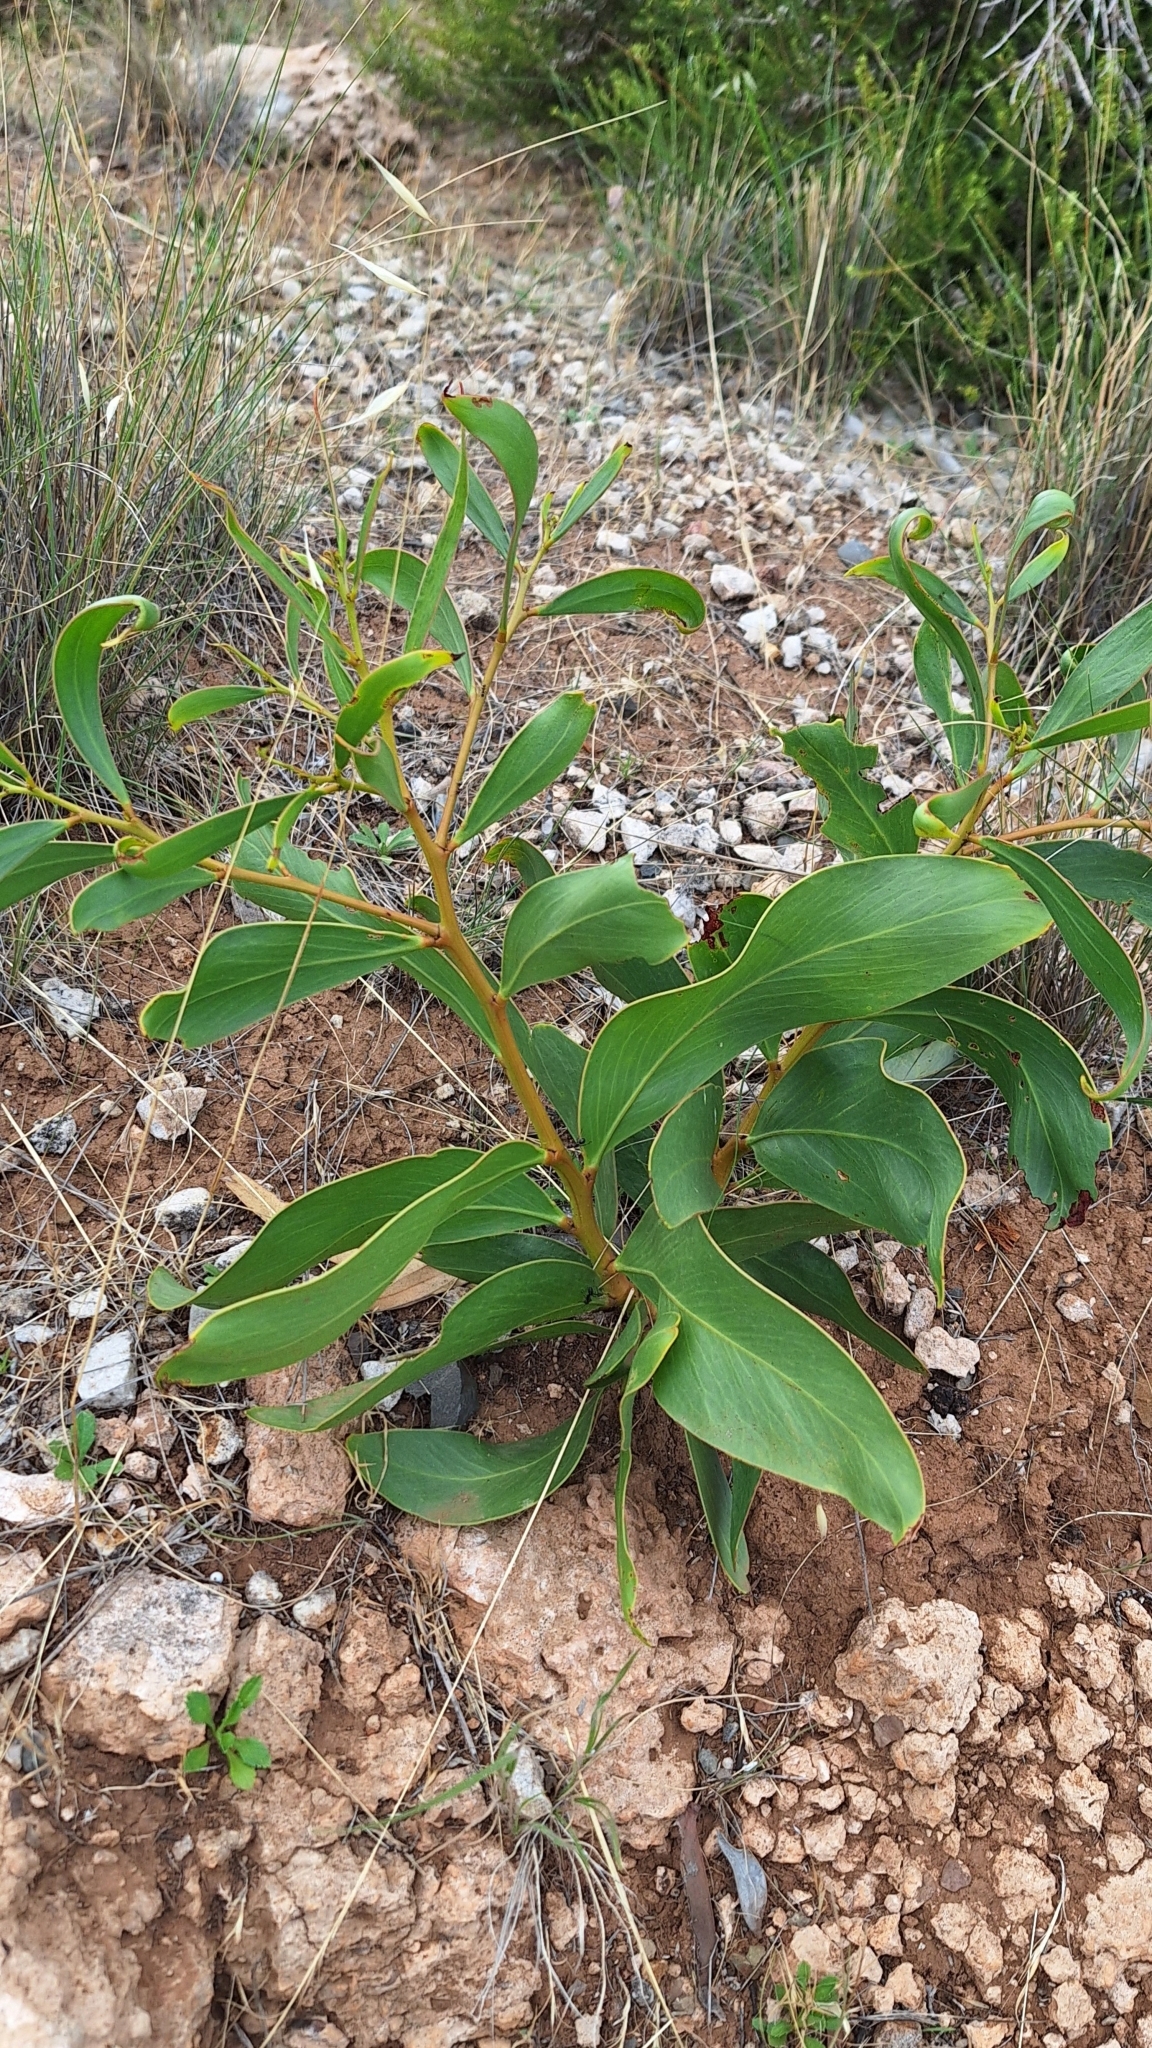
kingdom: Plantae
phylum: Tracheophyta
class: Magnoliopsida
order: Fabales
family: Fabaceae
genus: Acacia
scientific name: Acacia pycnantha
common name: Golden wattle
